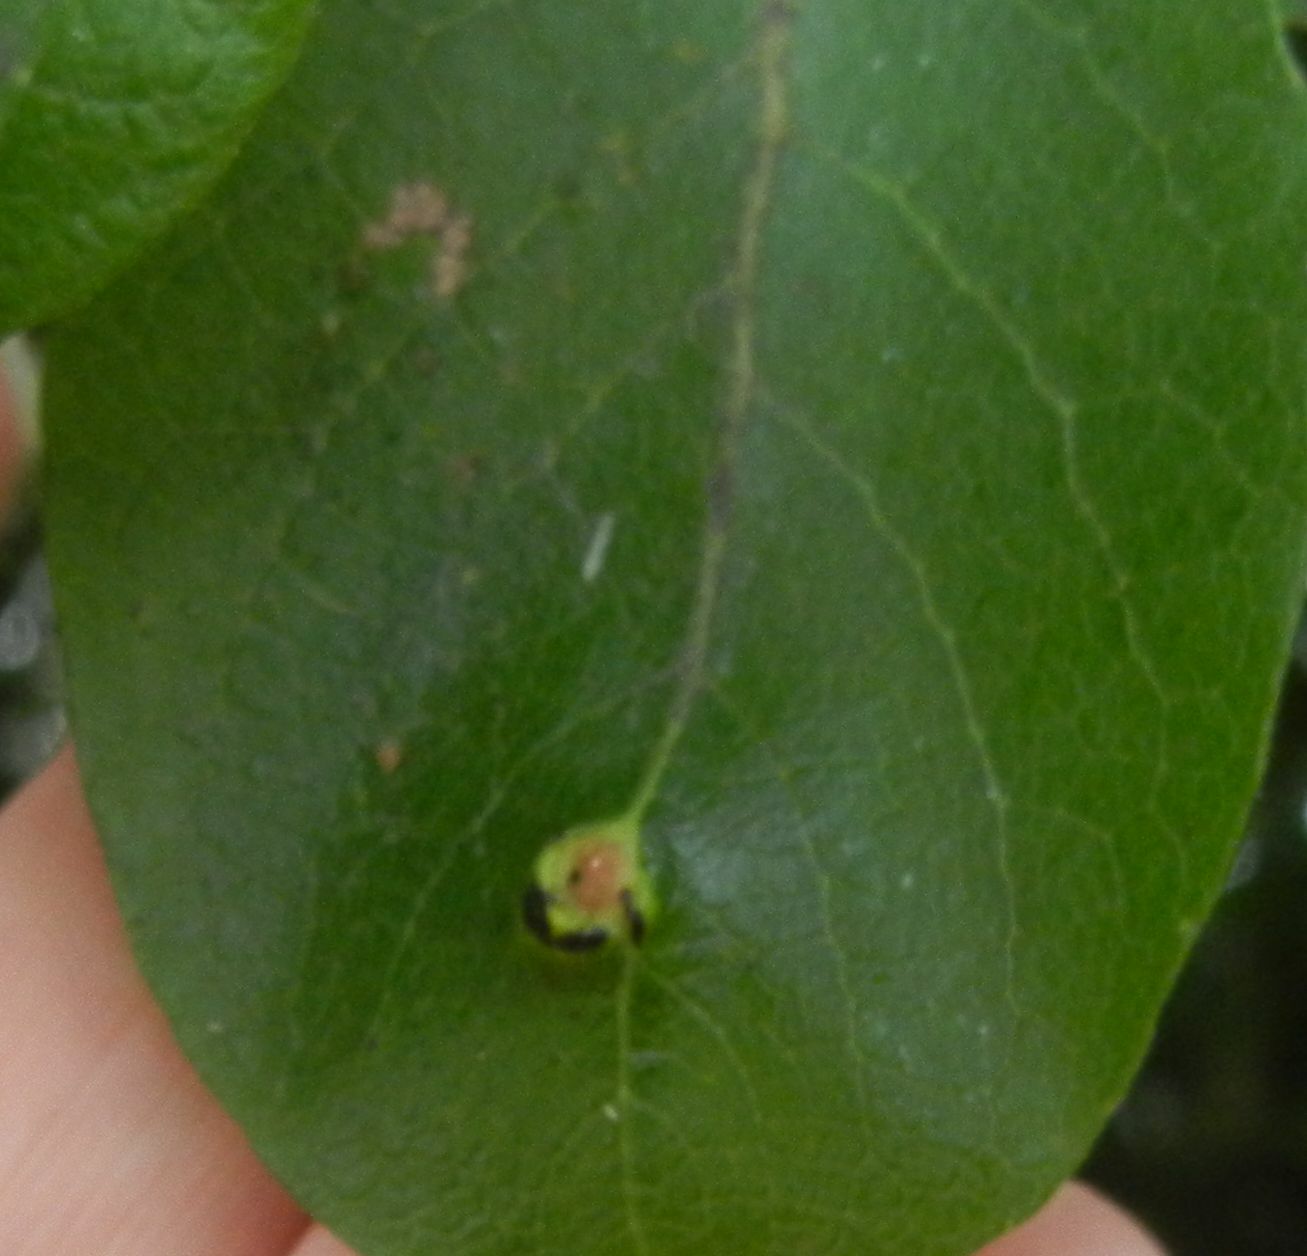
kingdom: Animalia
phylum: Arthropoda
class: Insecta
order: Hymenoptera
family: Tenthredinidae
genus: Pontania
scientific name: Pontania pedunculi
